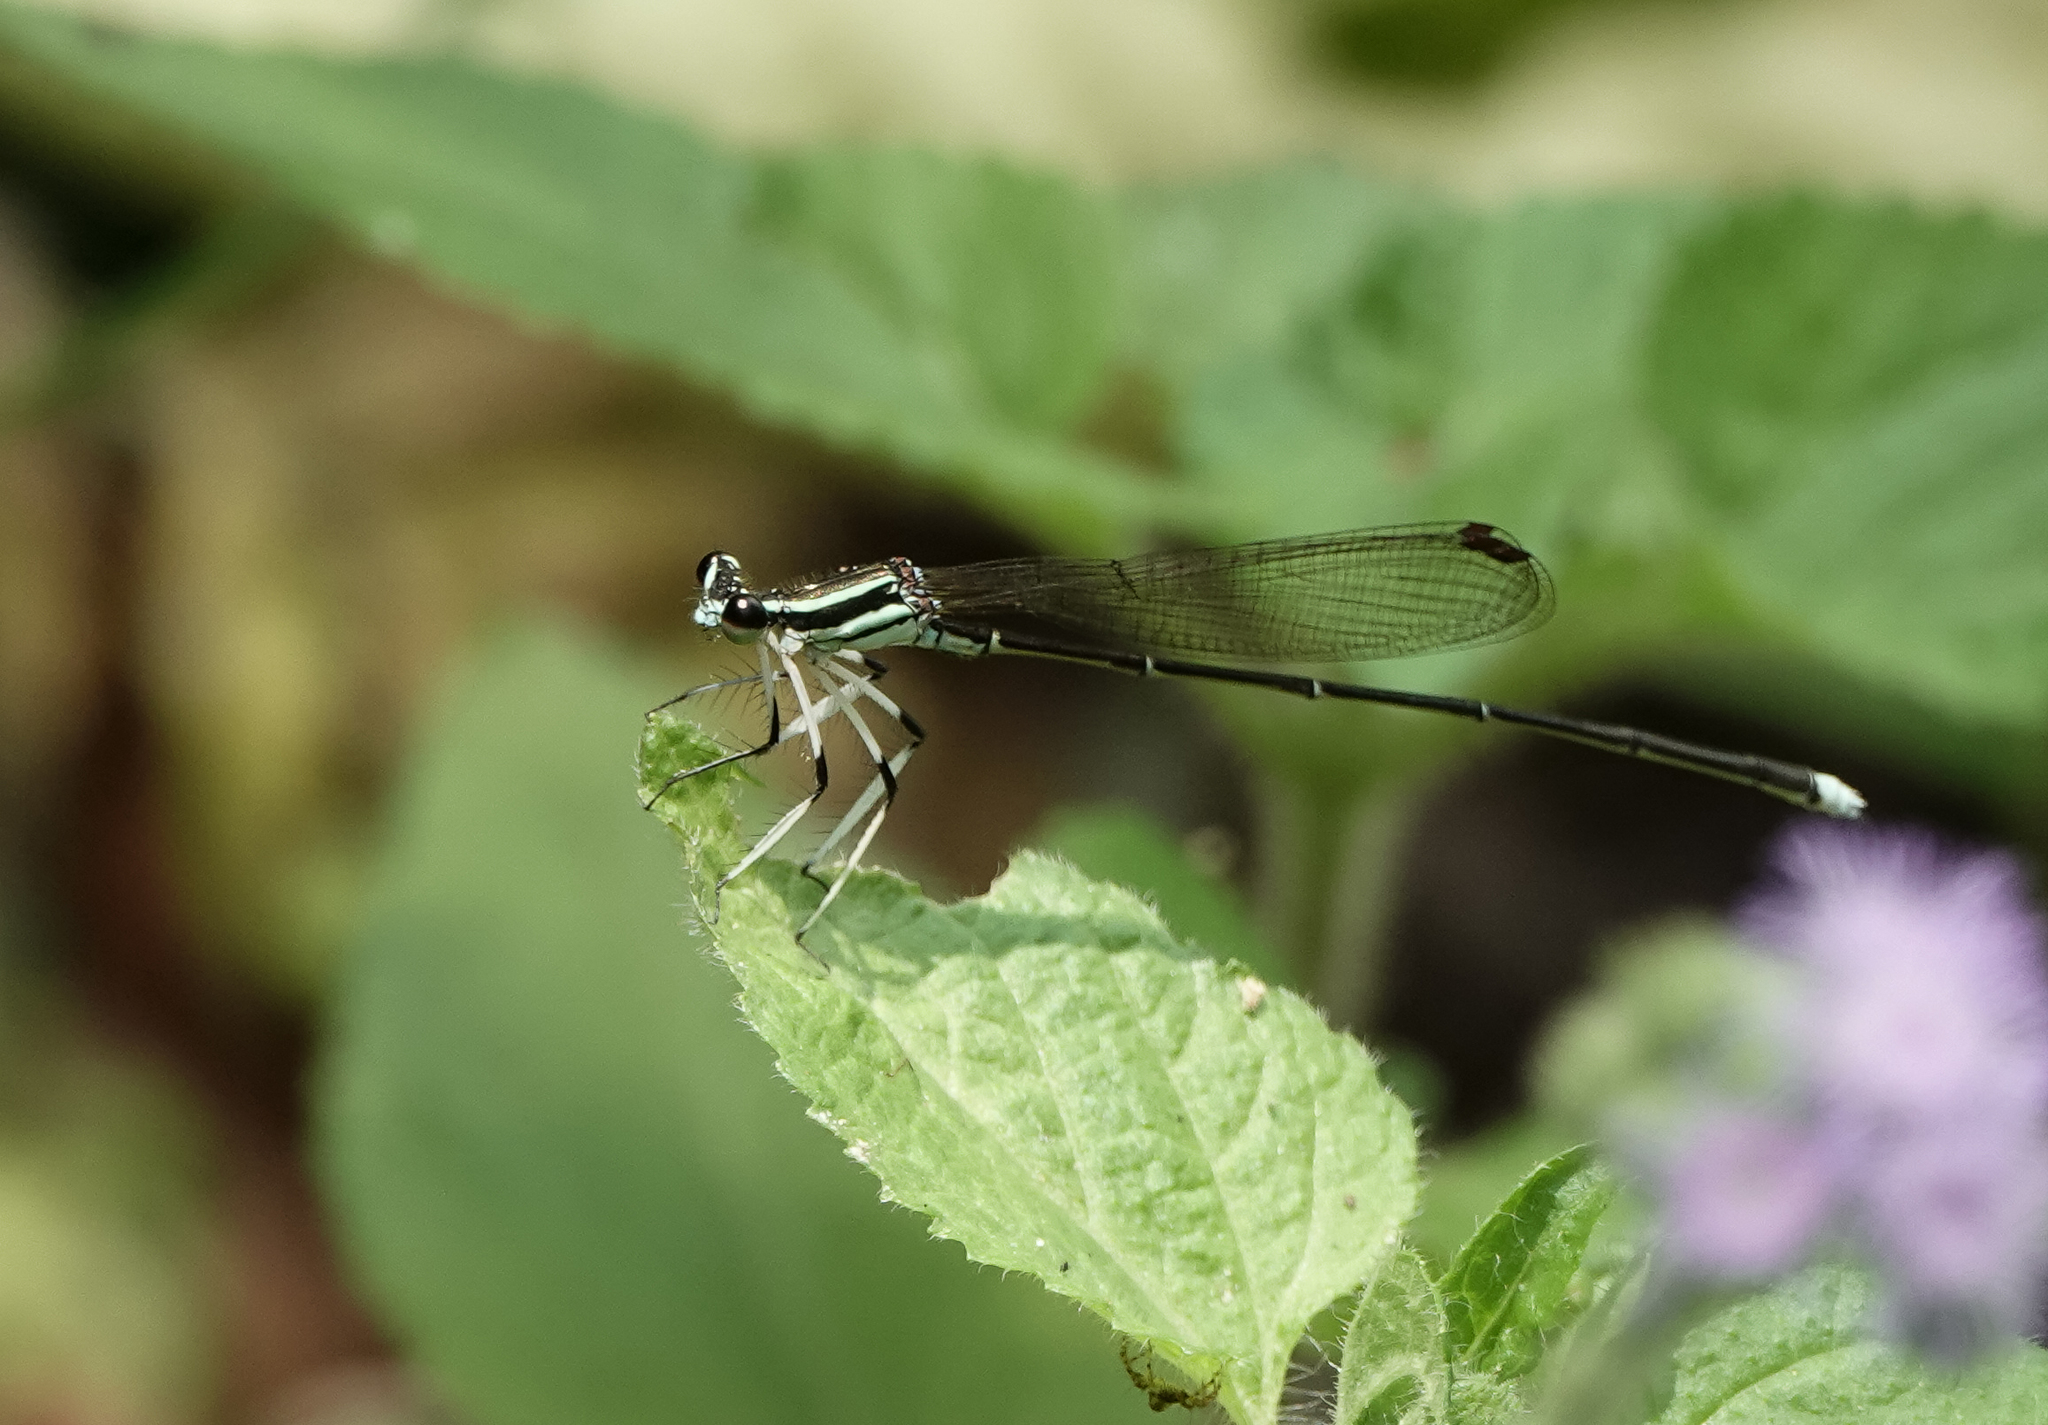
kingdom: Animalia
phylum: Arthropoda
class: Insecta
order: Odonata
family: Platycnemididae
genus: Pseudocopera
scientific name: Pseudocopera ciliata
